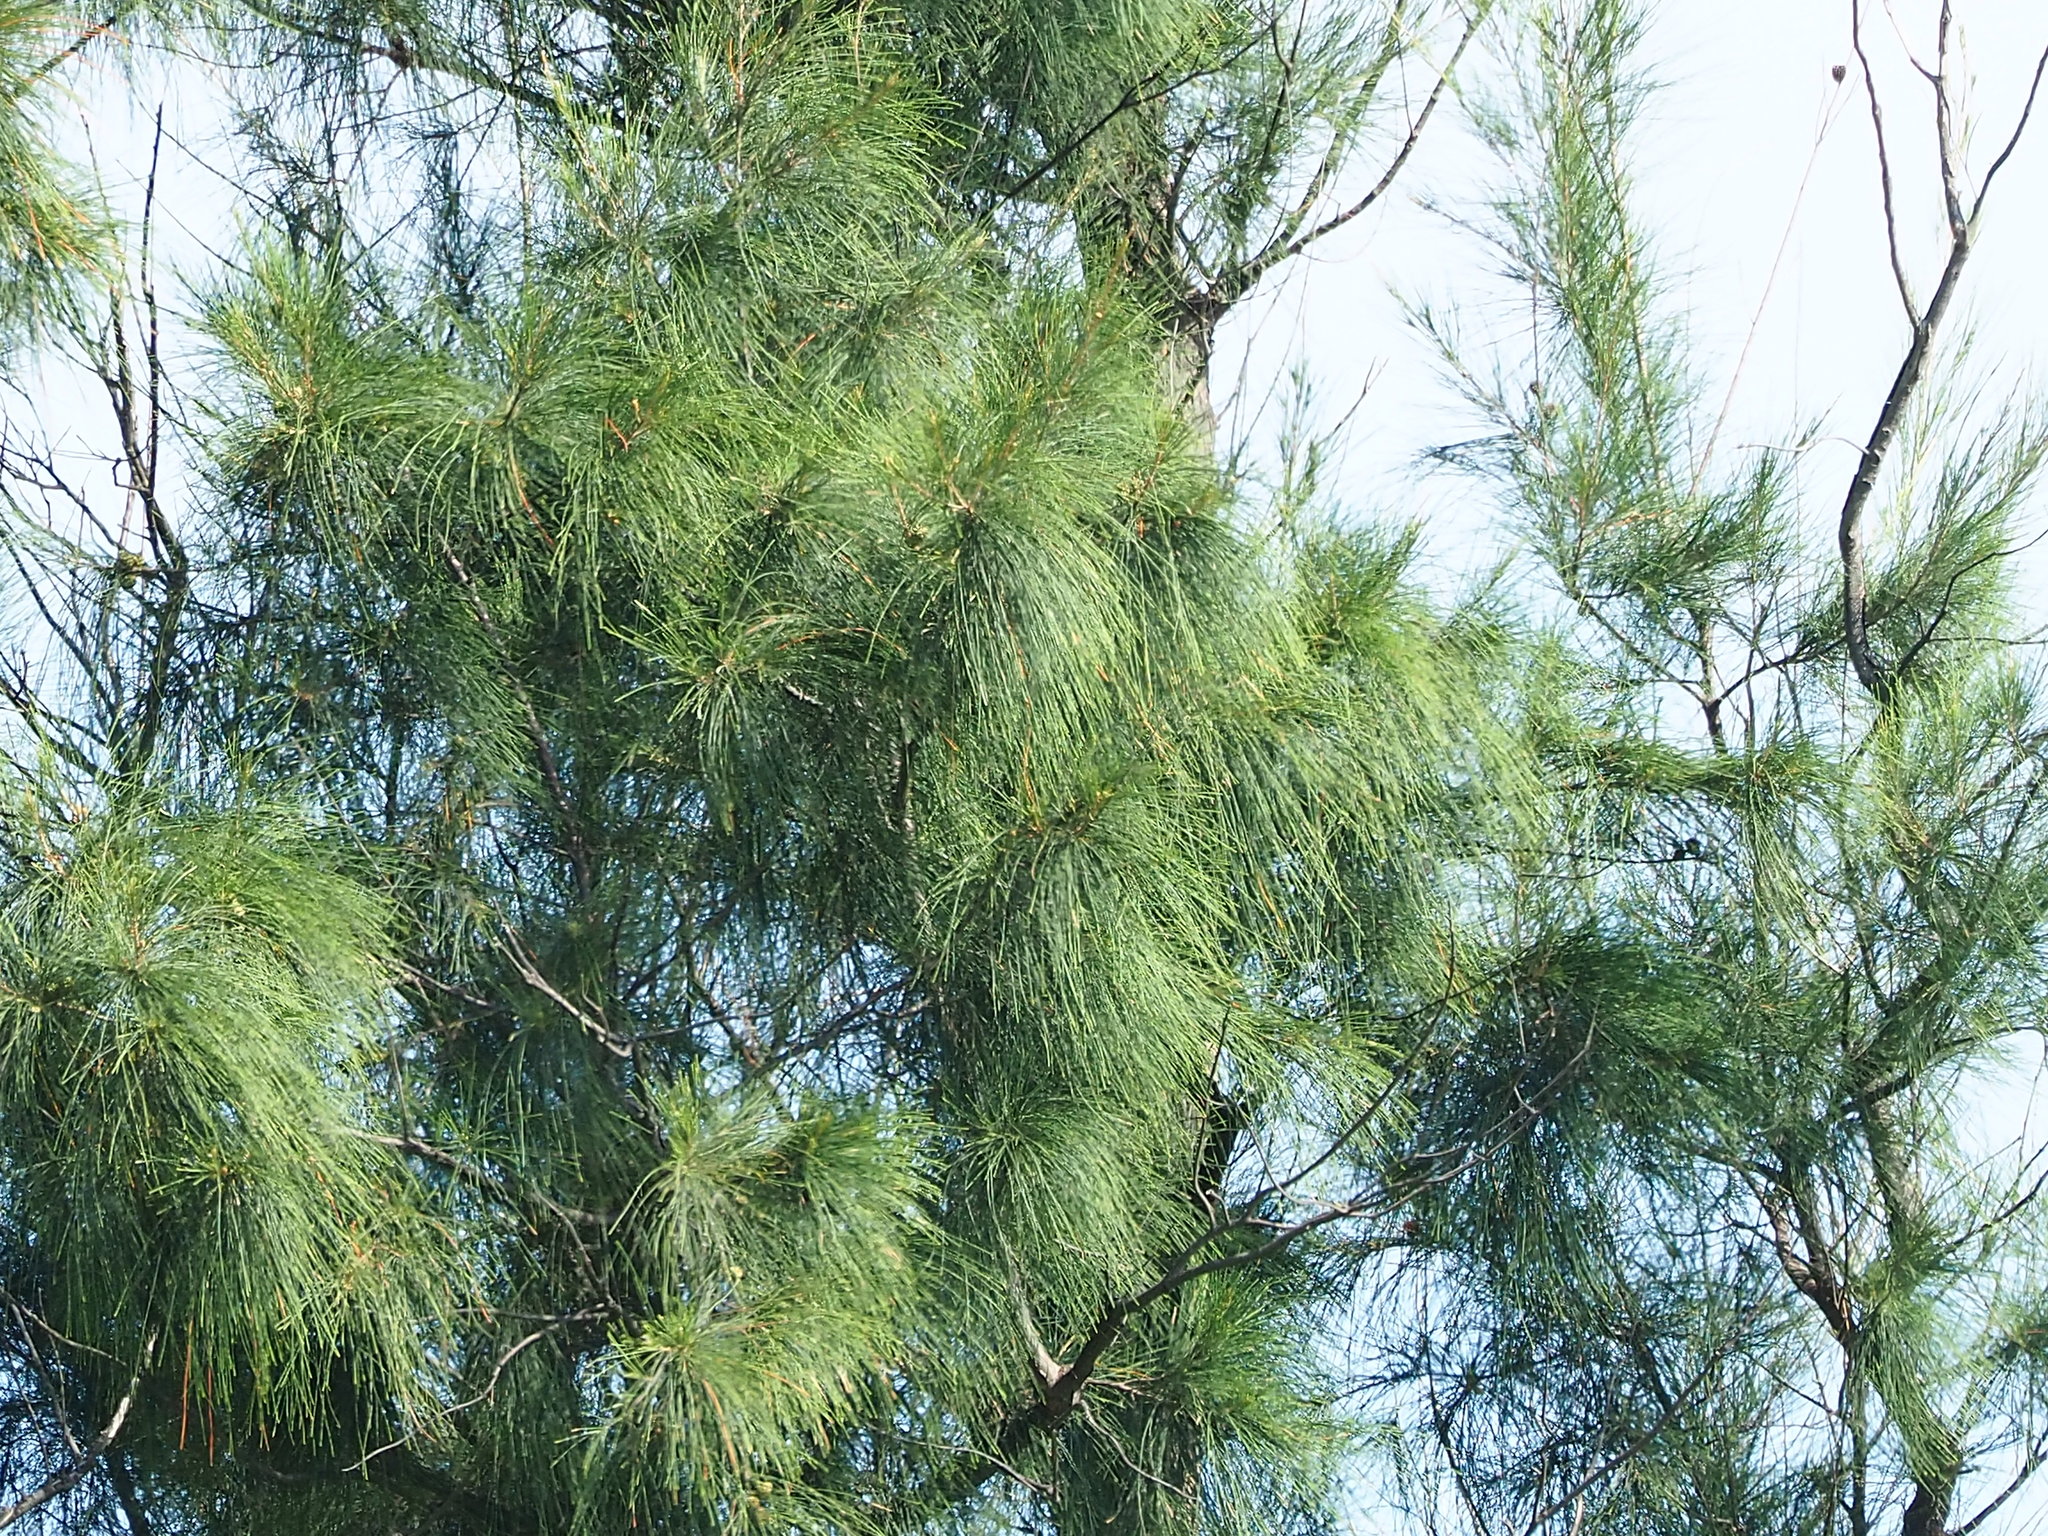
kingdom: Plantae
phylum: Tracheophyta
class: Magnoliopsida
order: Fagales
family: Casuarinaceae
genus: Casuarina
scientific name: Casuarina equisetifolia
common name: Beach sheoak
